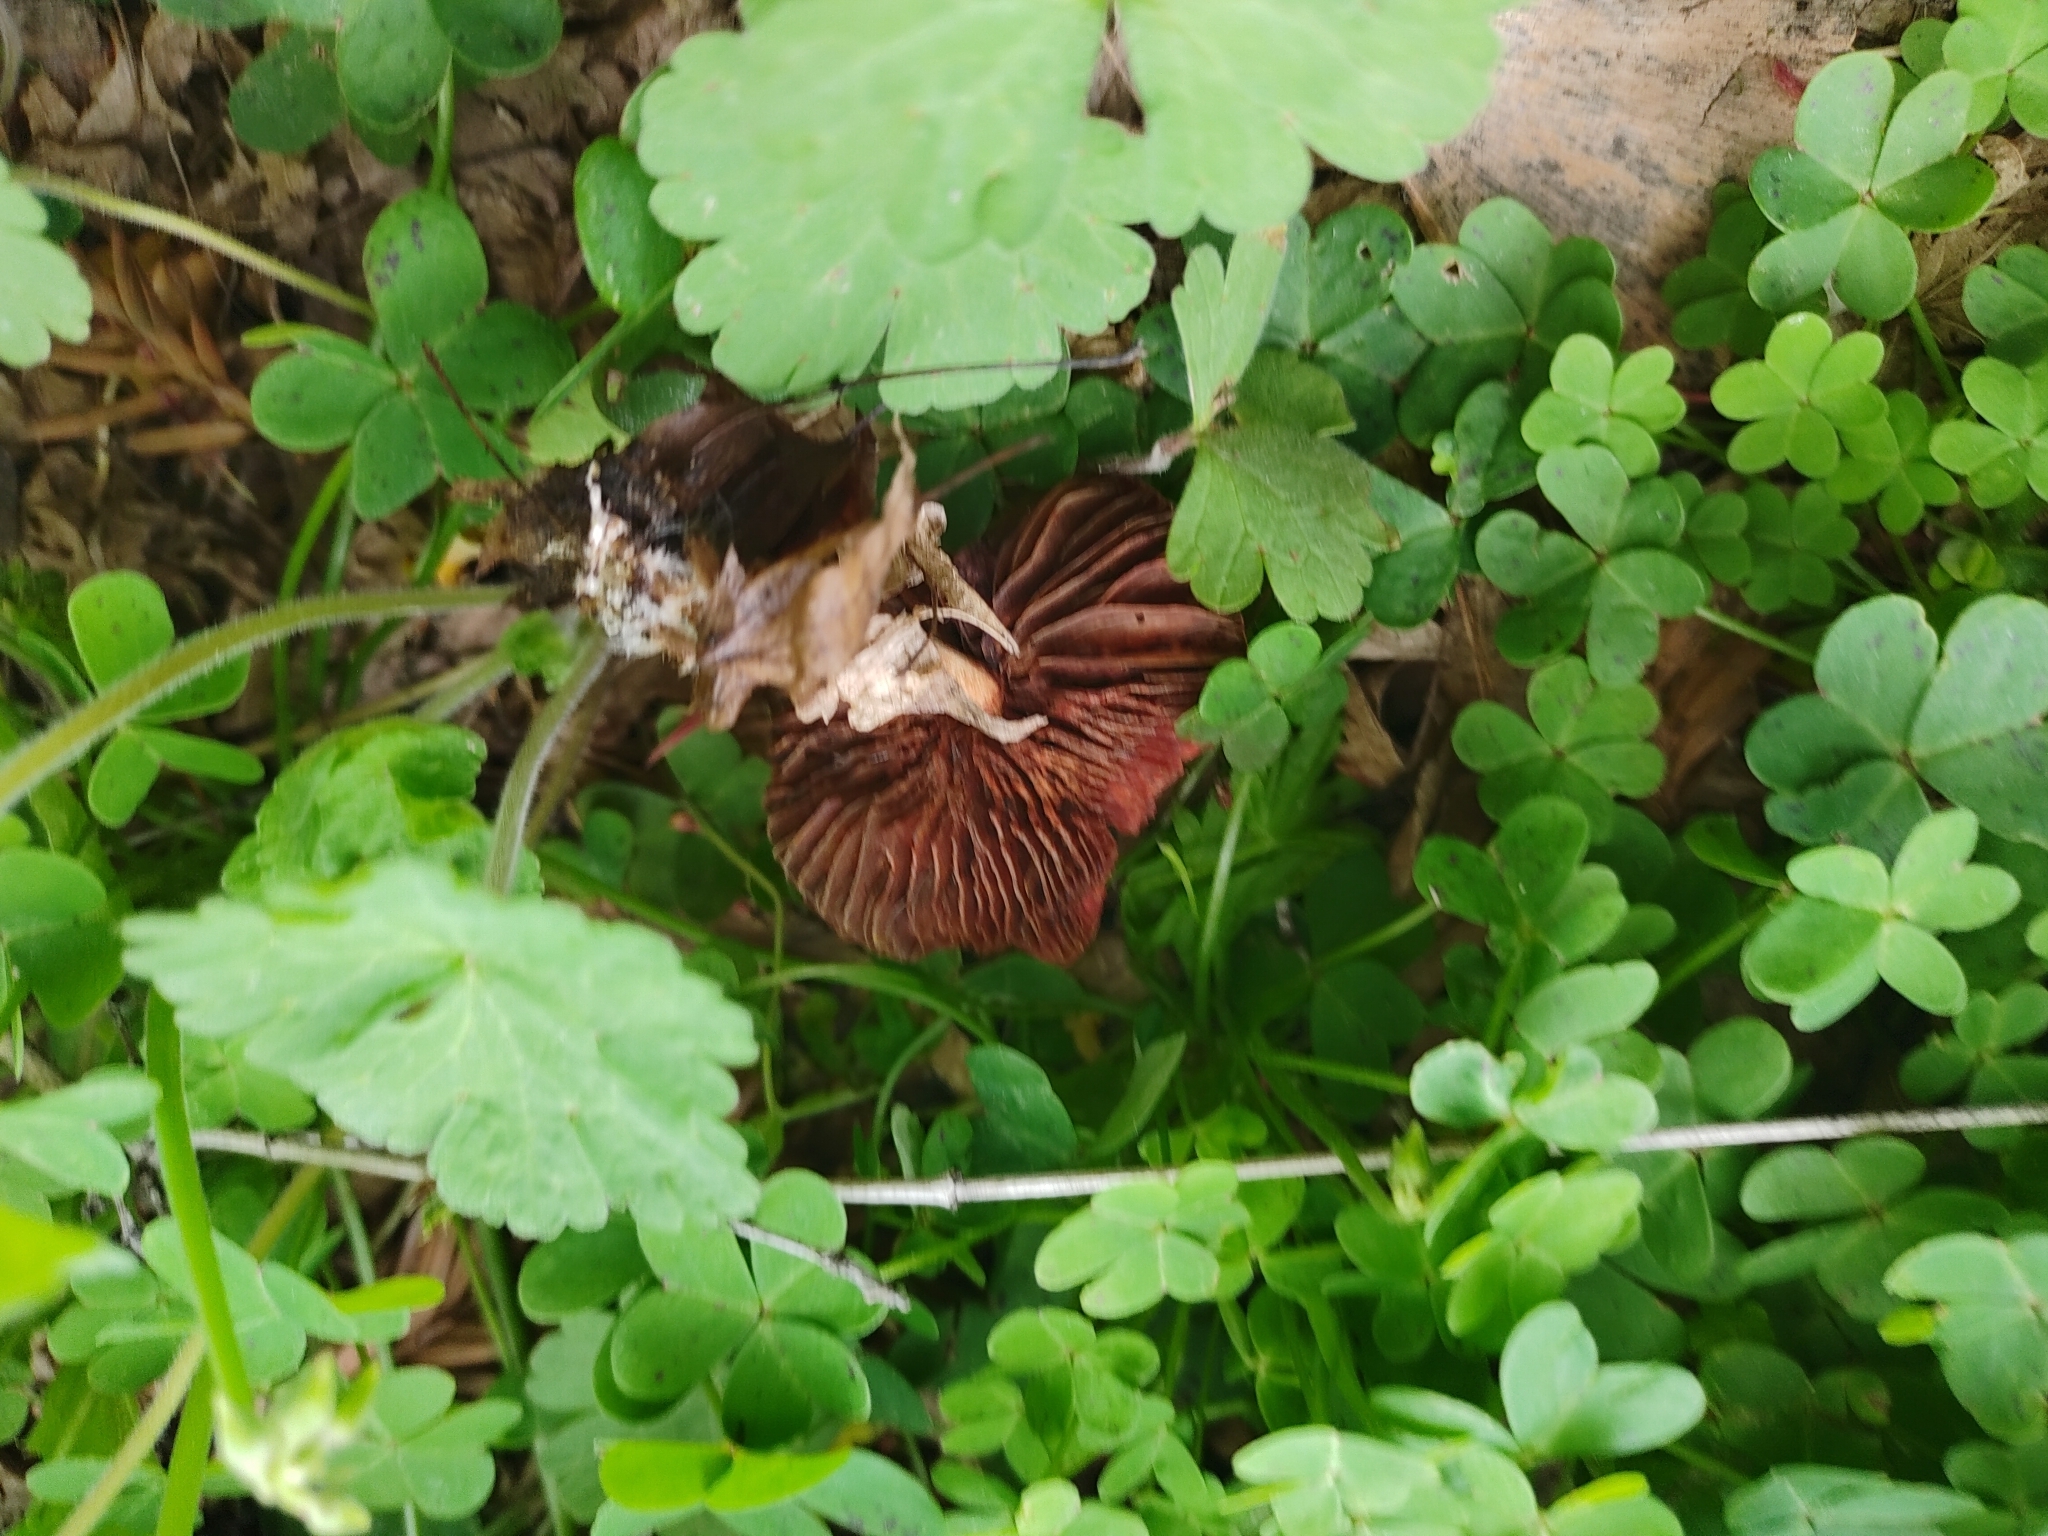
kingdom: Fungi
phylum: Basidiomycota
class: Agaricomycetes
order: Agaricales
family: Strophariaceae
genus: Leratiomyces
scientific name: Leratiomyces ceres
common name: Redlead roundhead
